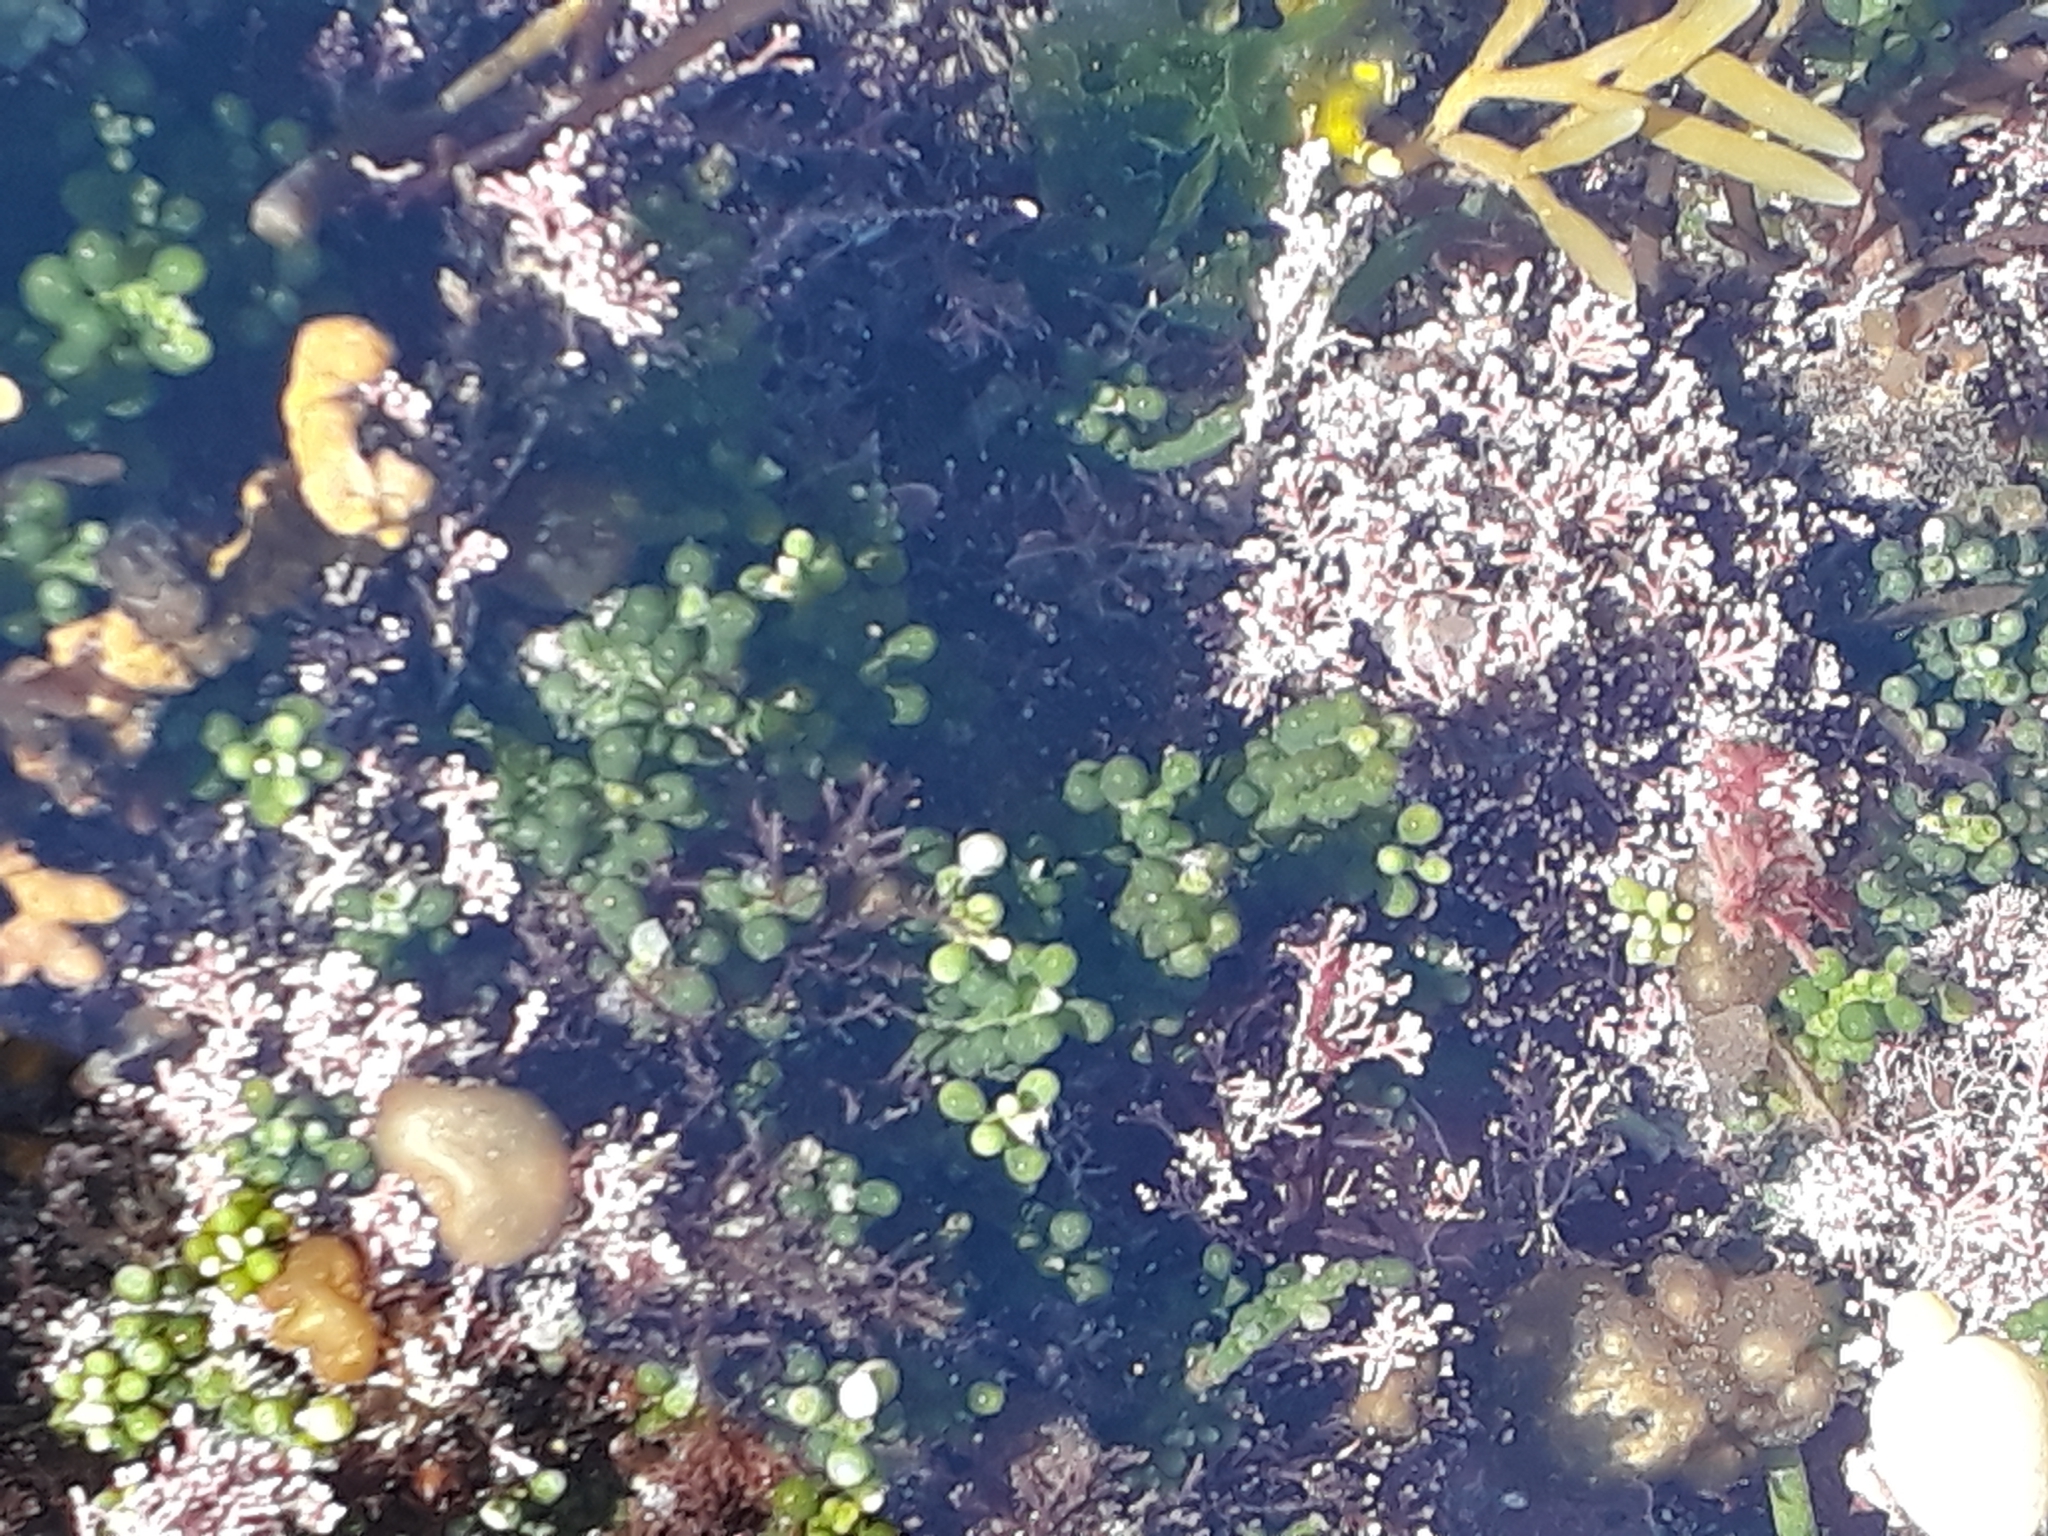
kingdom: Plantae
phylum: Chlorophyta
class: Ulvophyceae
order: Bryopsidales
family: Caulerpaceae
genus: Caulerpa
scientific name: Caulerpa geminata
